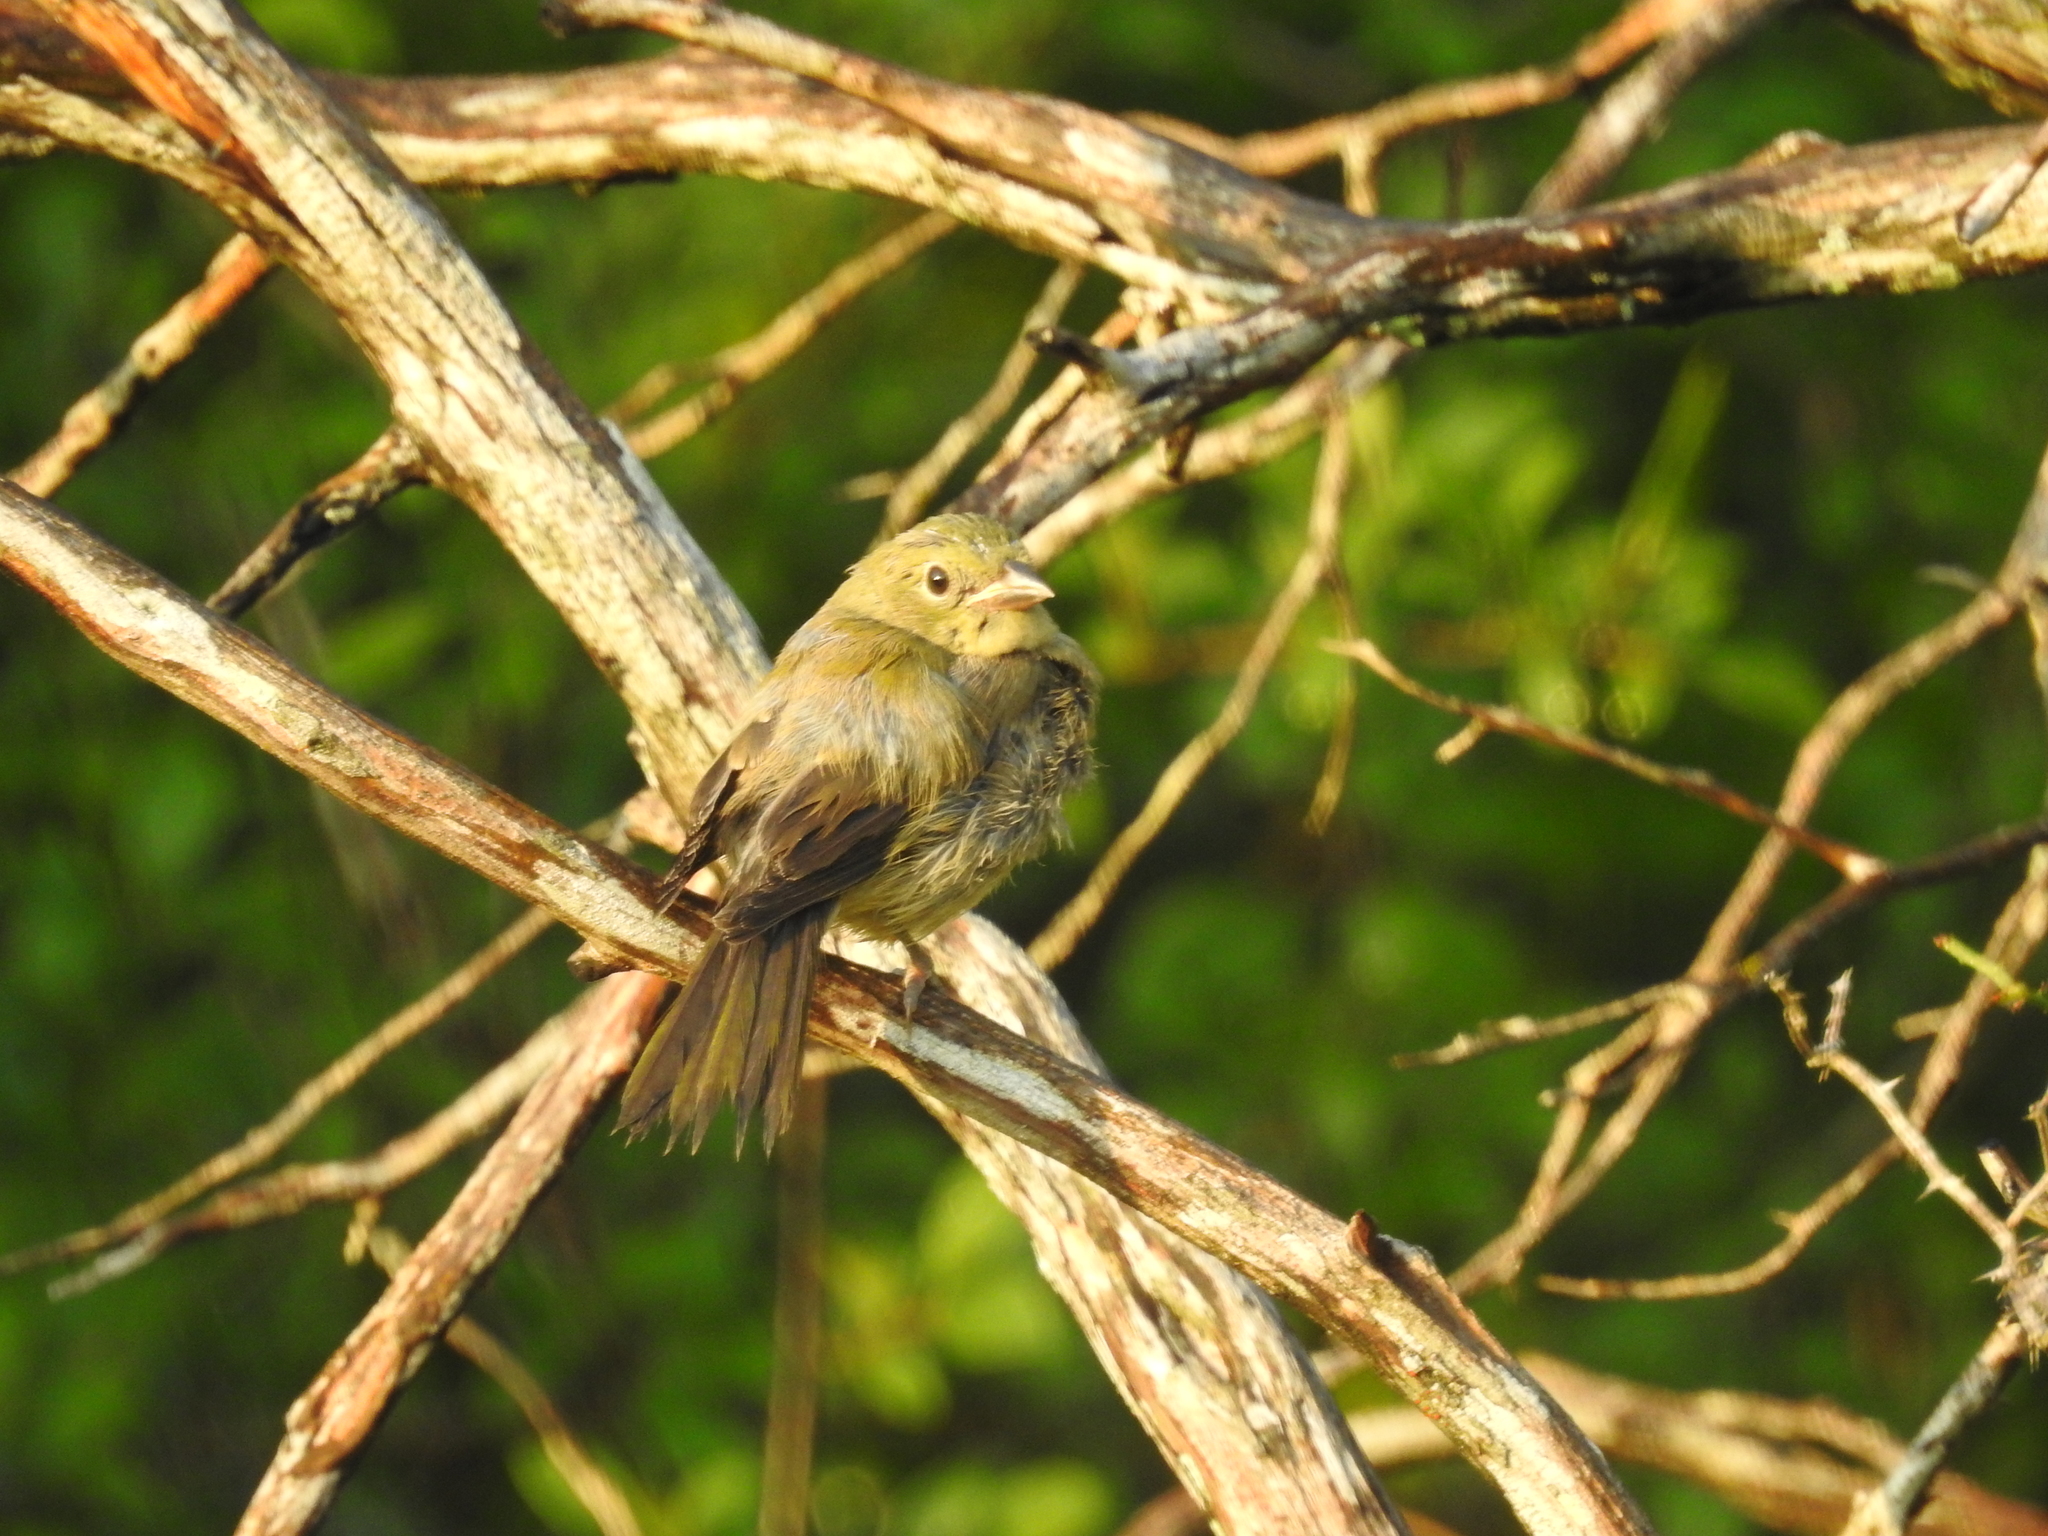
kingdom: Animalia
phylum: Chordata
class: Aves
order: Passeriformes
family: Cardinalidae
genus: Passerina
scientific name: Passerina ciris
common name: Painted bunting
